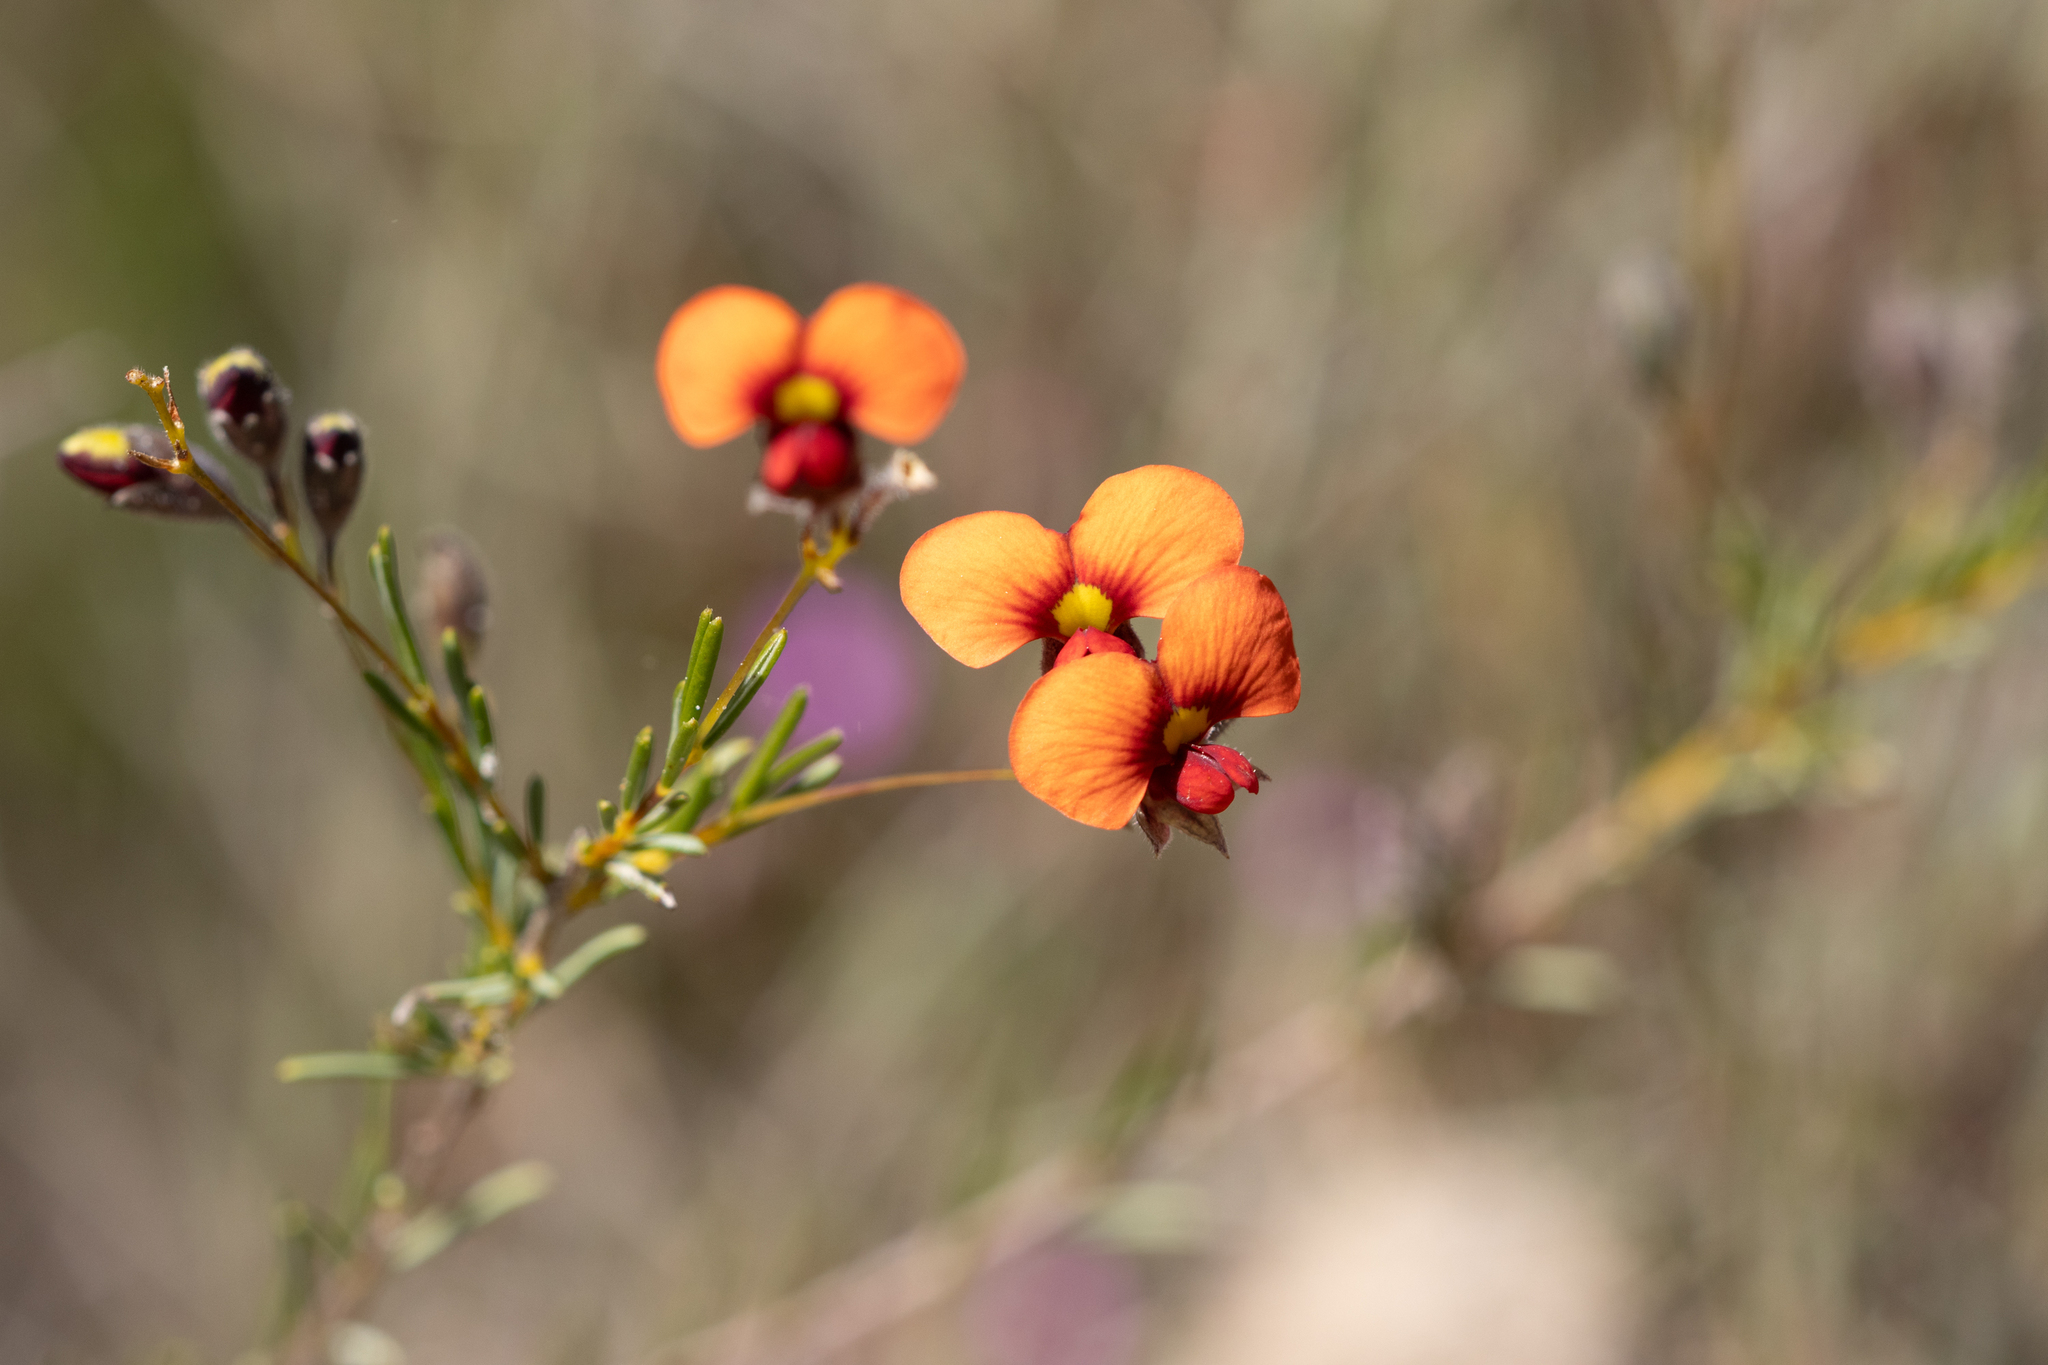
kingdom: Plantae
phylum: Tracheophyta
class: Magnoliopsida
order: Fabales
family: Fabaceae
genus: Dillwynia
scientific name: Dillwynia hispida
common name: Red parrot-pea
